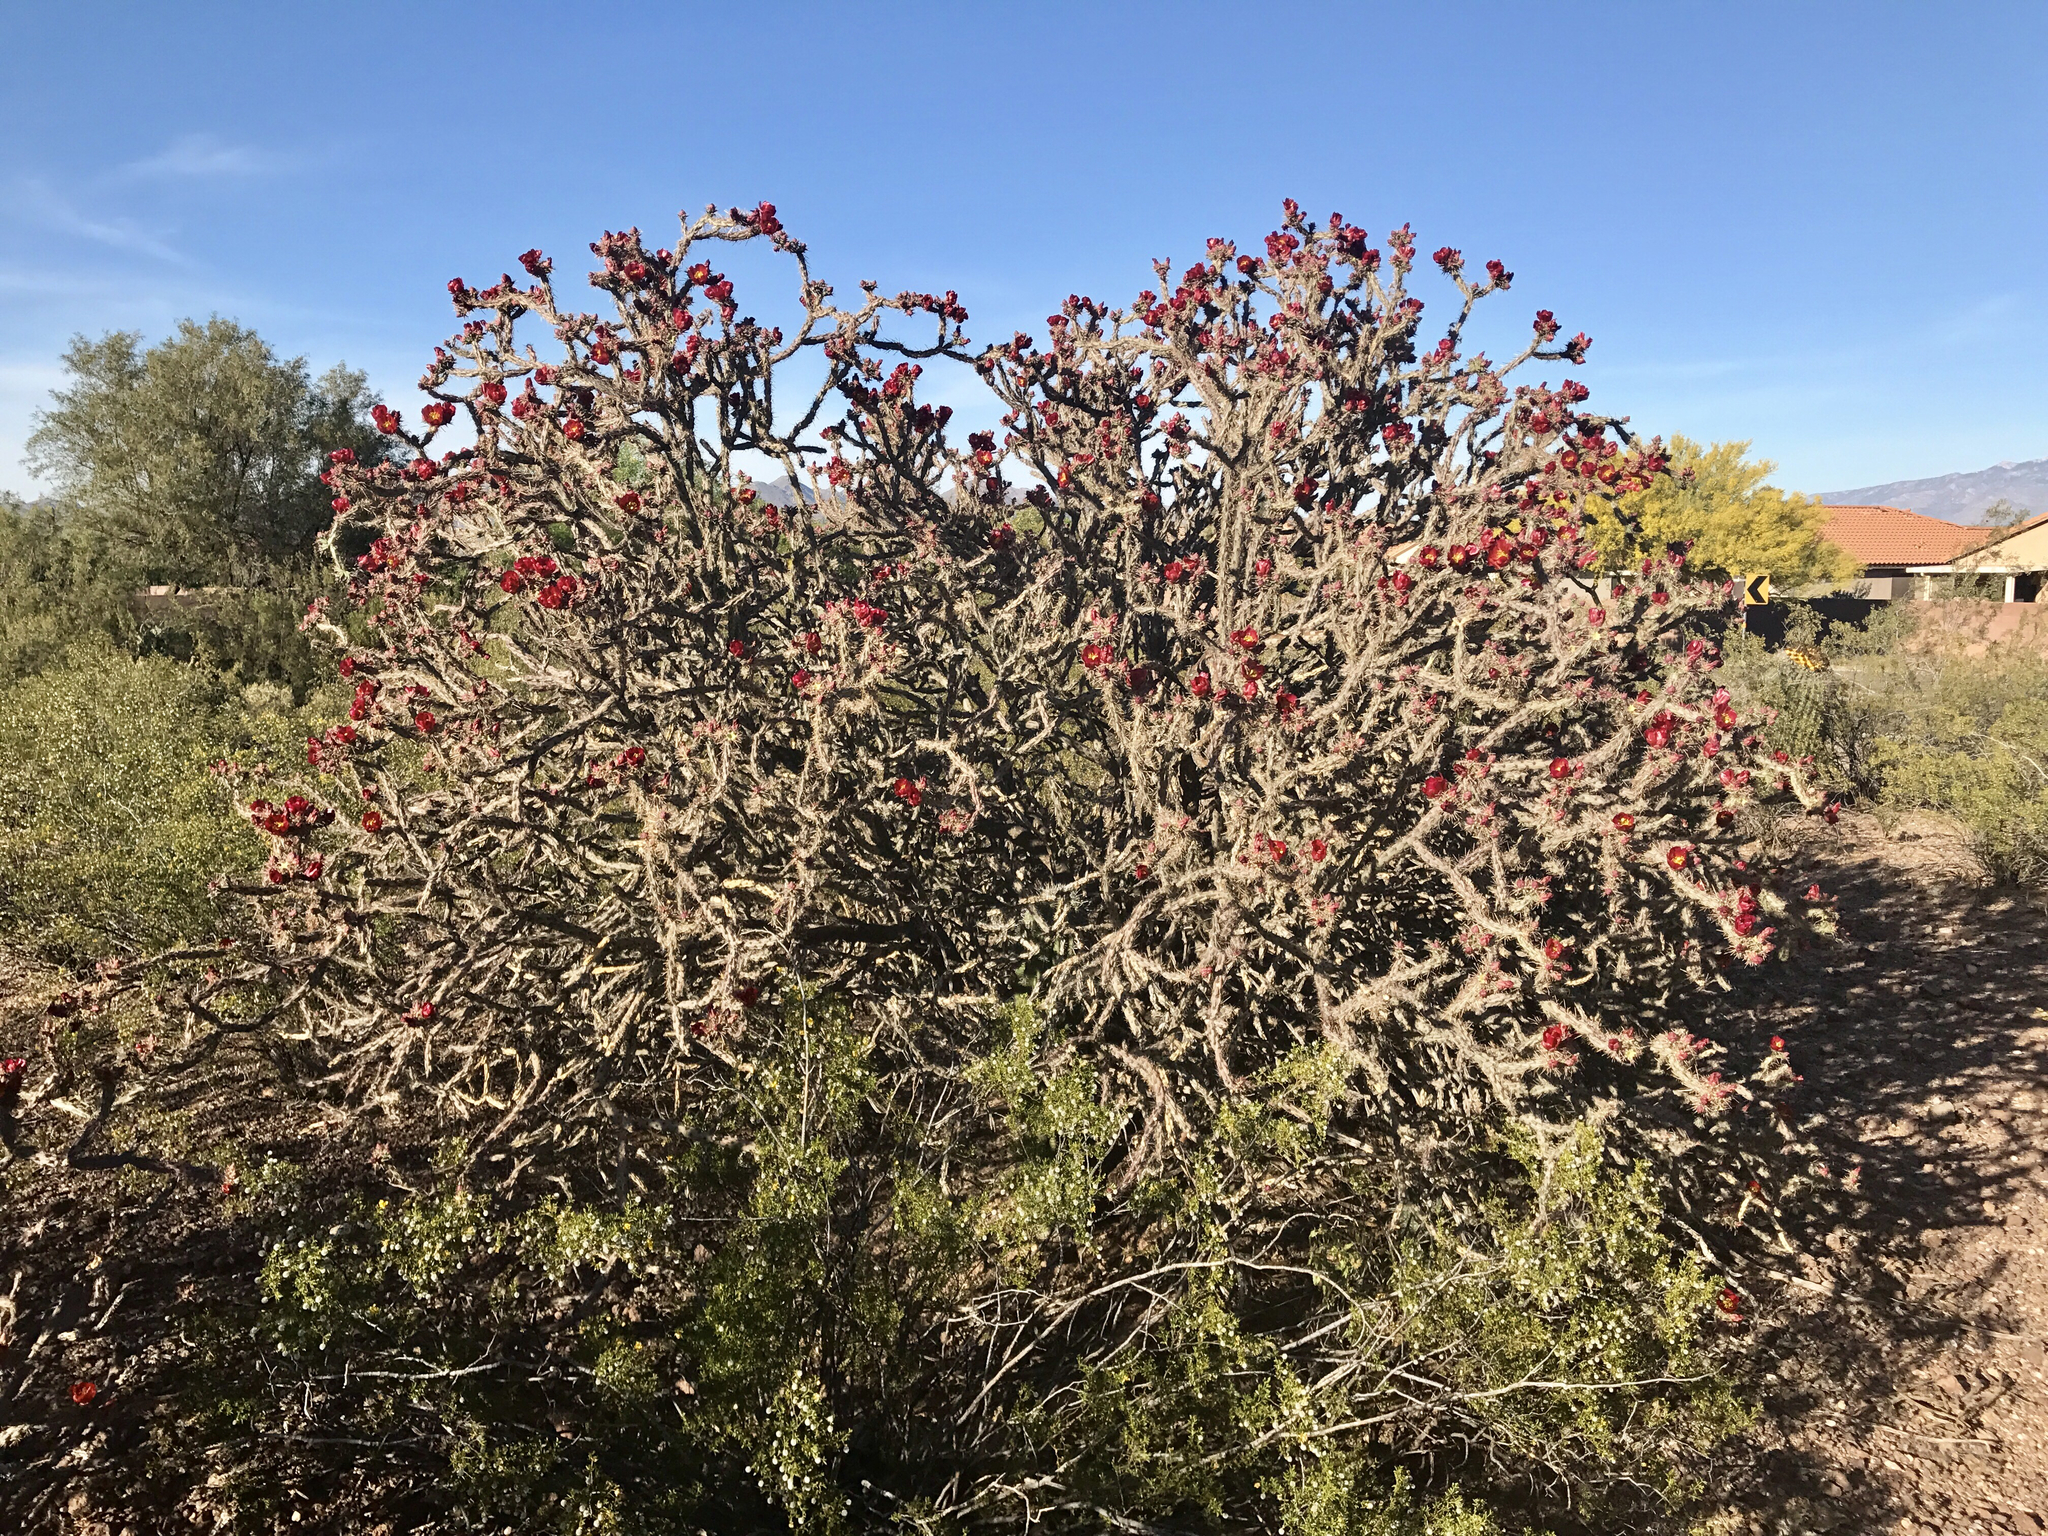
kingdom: Plantae
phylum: Tracheophyta
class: Magnoliopsida
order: Caryophyllales
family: Cactaceae
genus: Cylindropuntia
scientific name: Cylindropuntia thurberi
